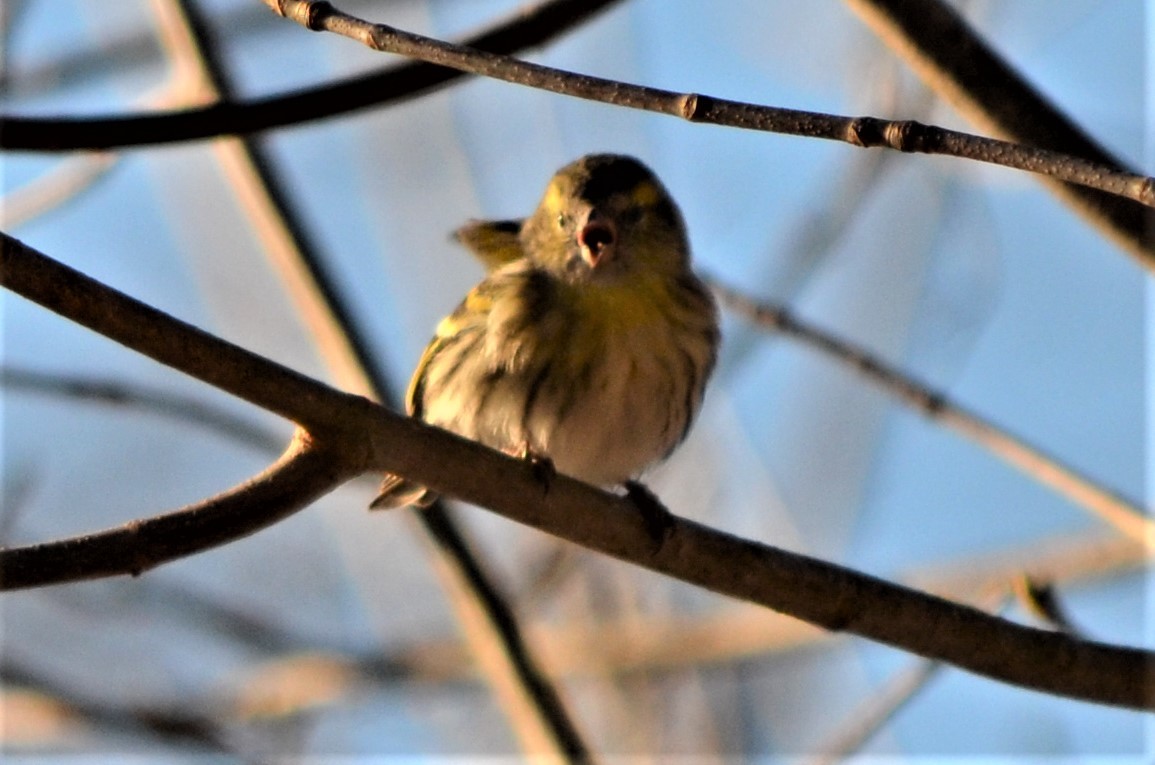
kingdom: Animalia
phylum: Chordata
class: Aves
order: Passeriformes
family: Fringillidae
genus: Spinus
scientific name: Spinus spinus
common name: Eurasian siskin
